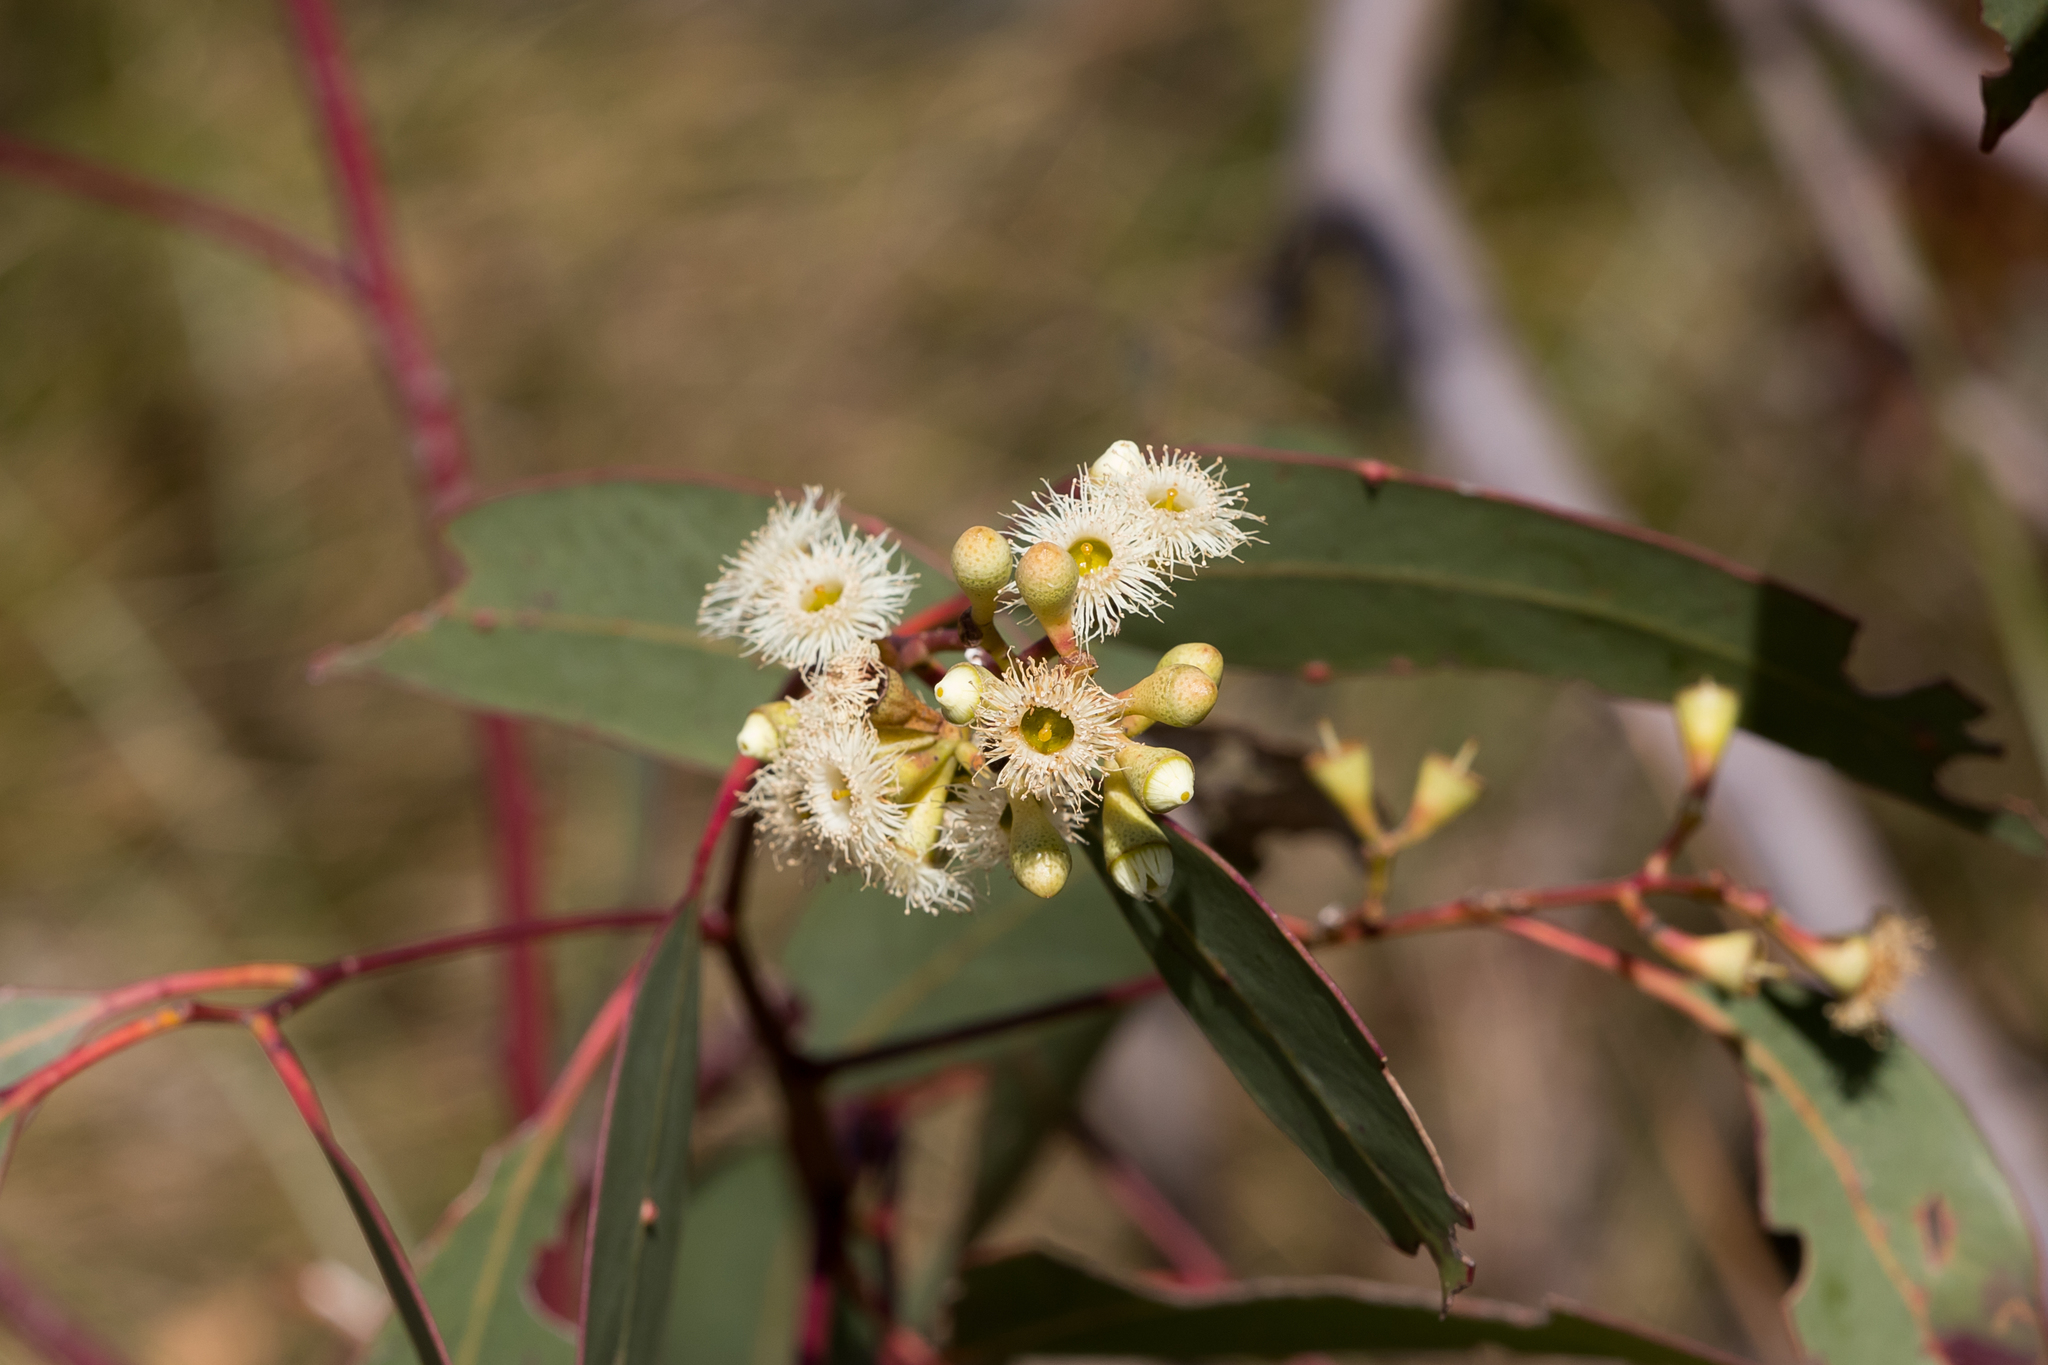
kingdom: Plantae
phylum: Tracheophyta
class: Magnoliopsida
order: Myrtales
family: Myrtaceae
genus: Eucalyptus
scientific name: Eucalyptus fasciculosa
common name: Hill gum
